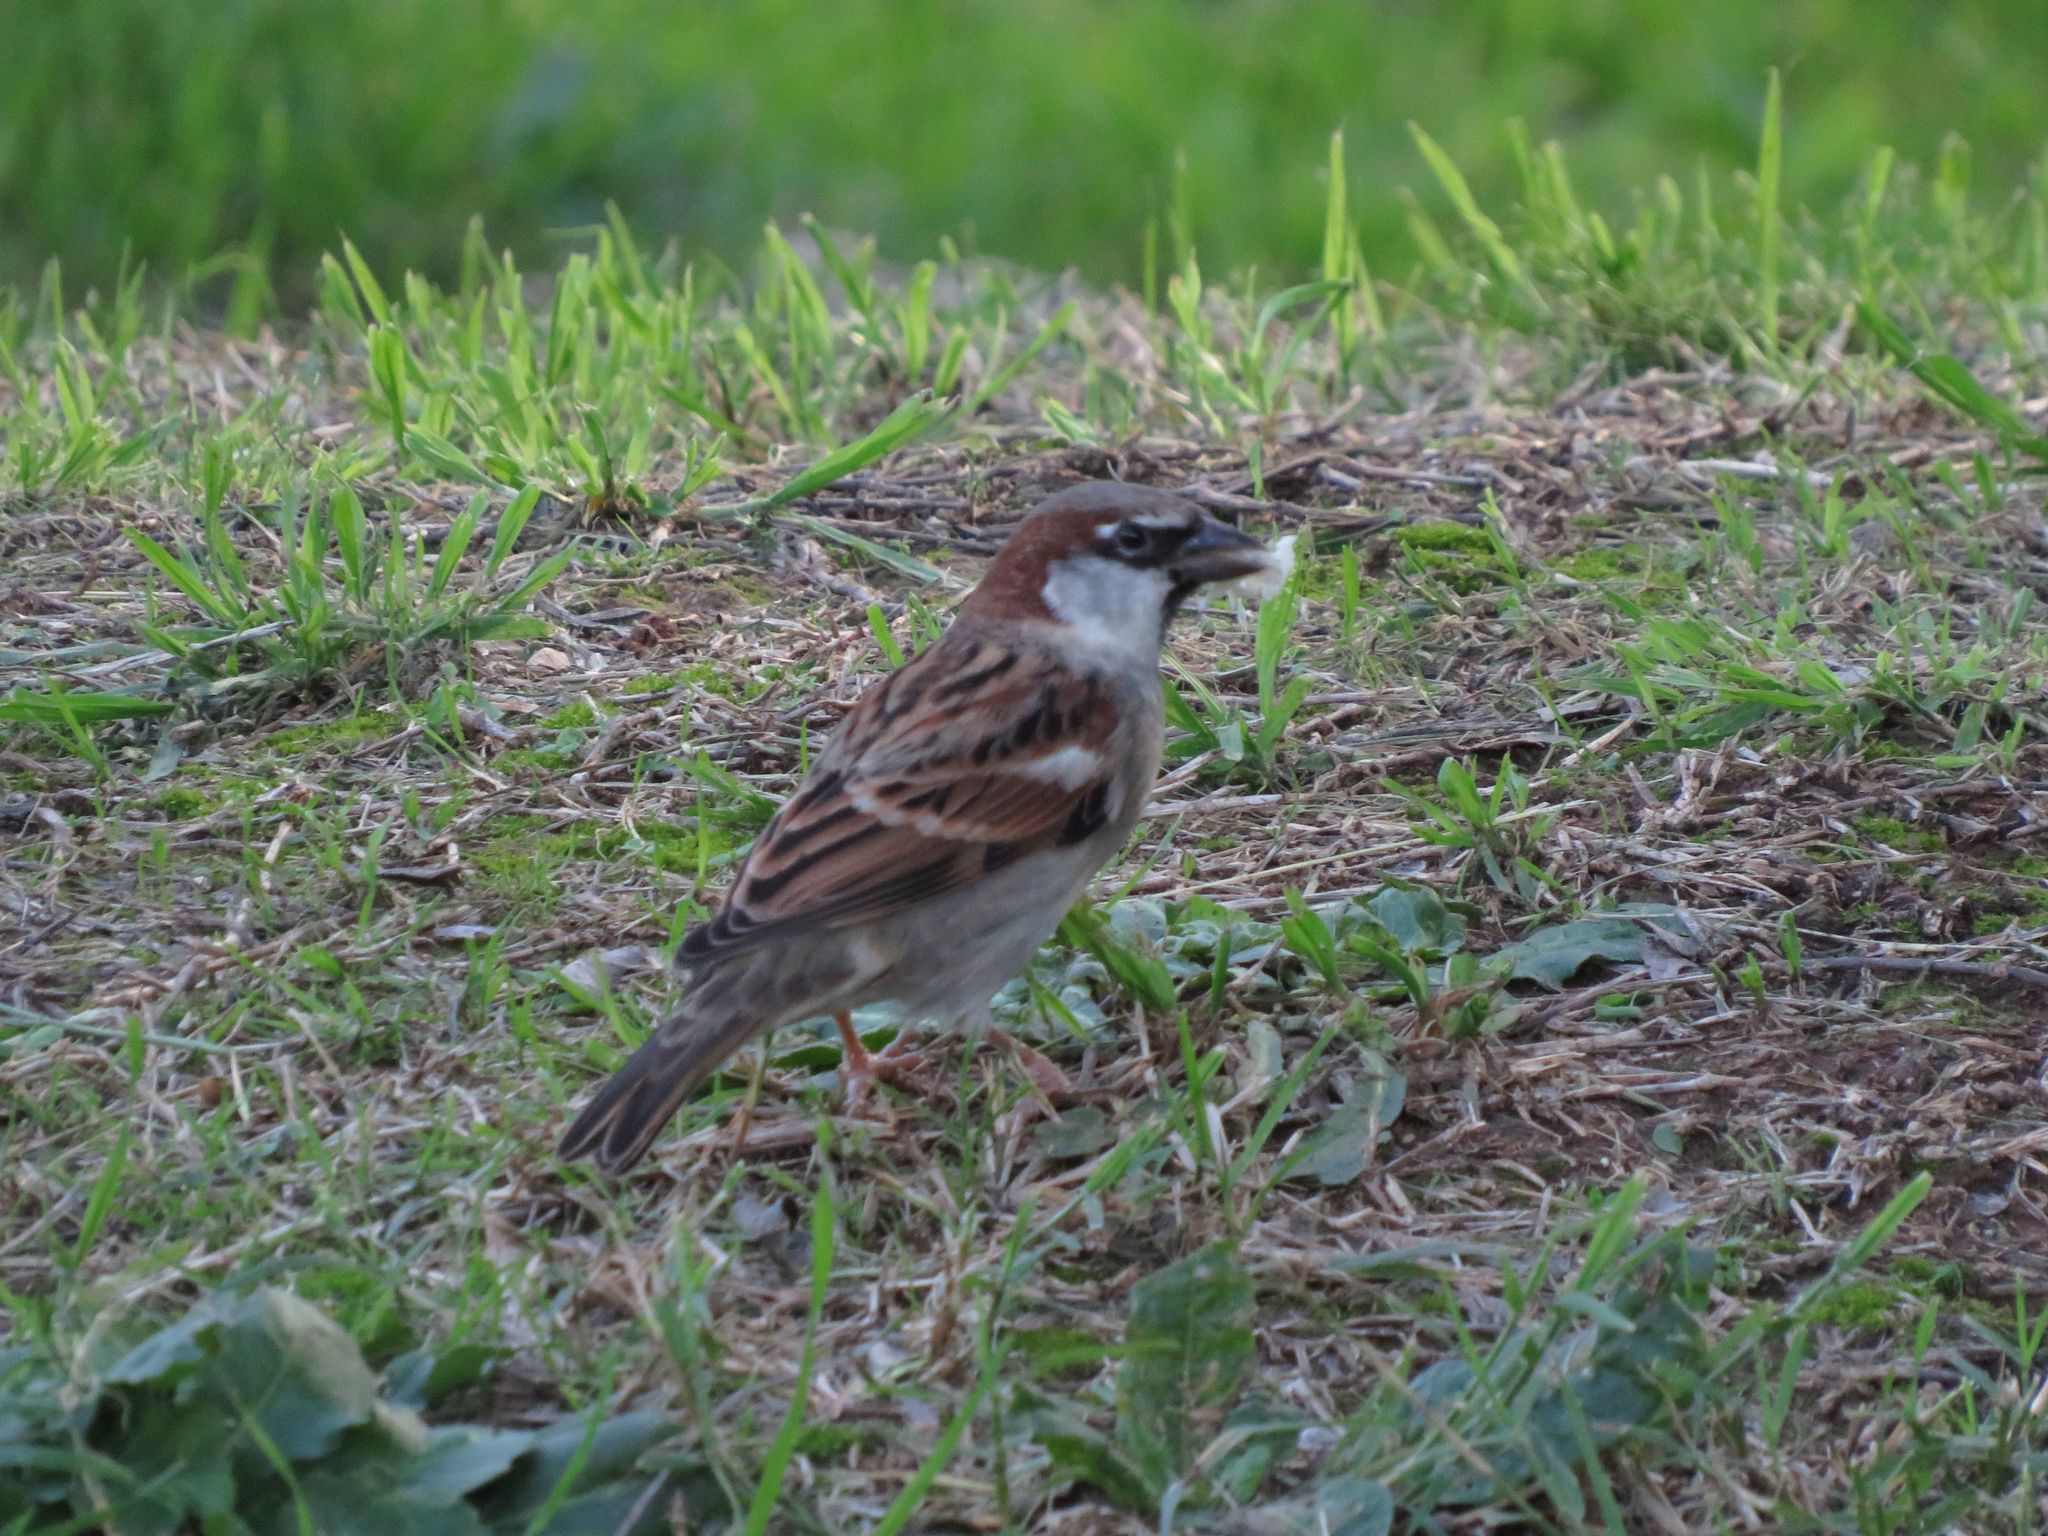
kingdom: Animalia
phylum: Chordata
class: Aves
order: Passeriformes
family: Passeridae
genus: Passer
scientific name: Passer domesticus
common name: House sparrow
